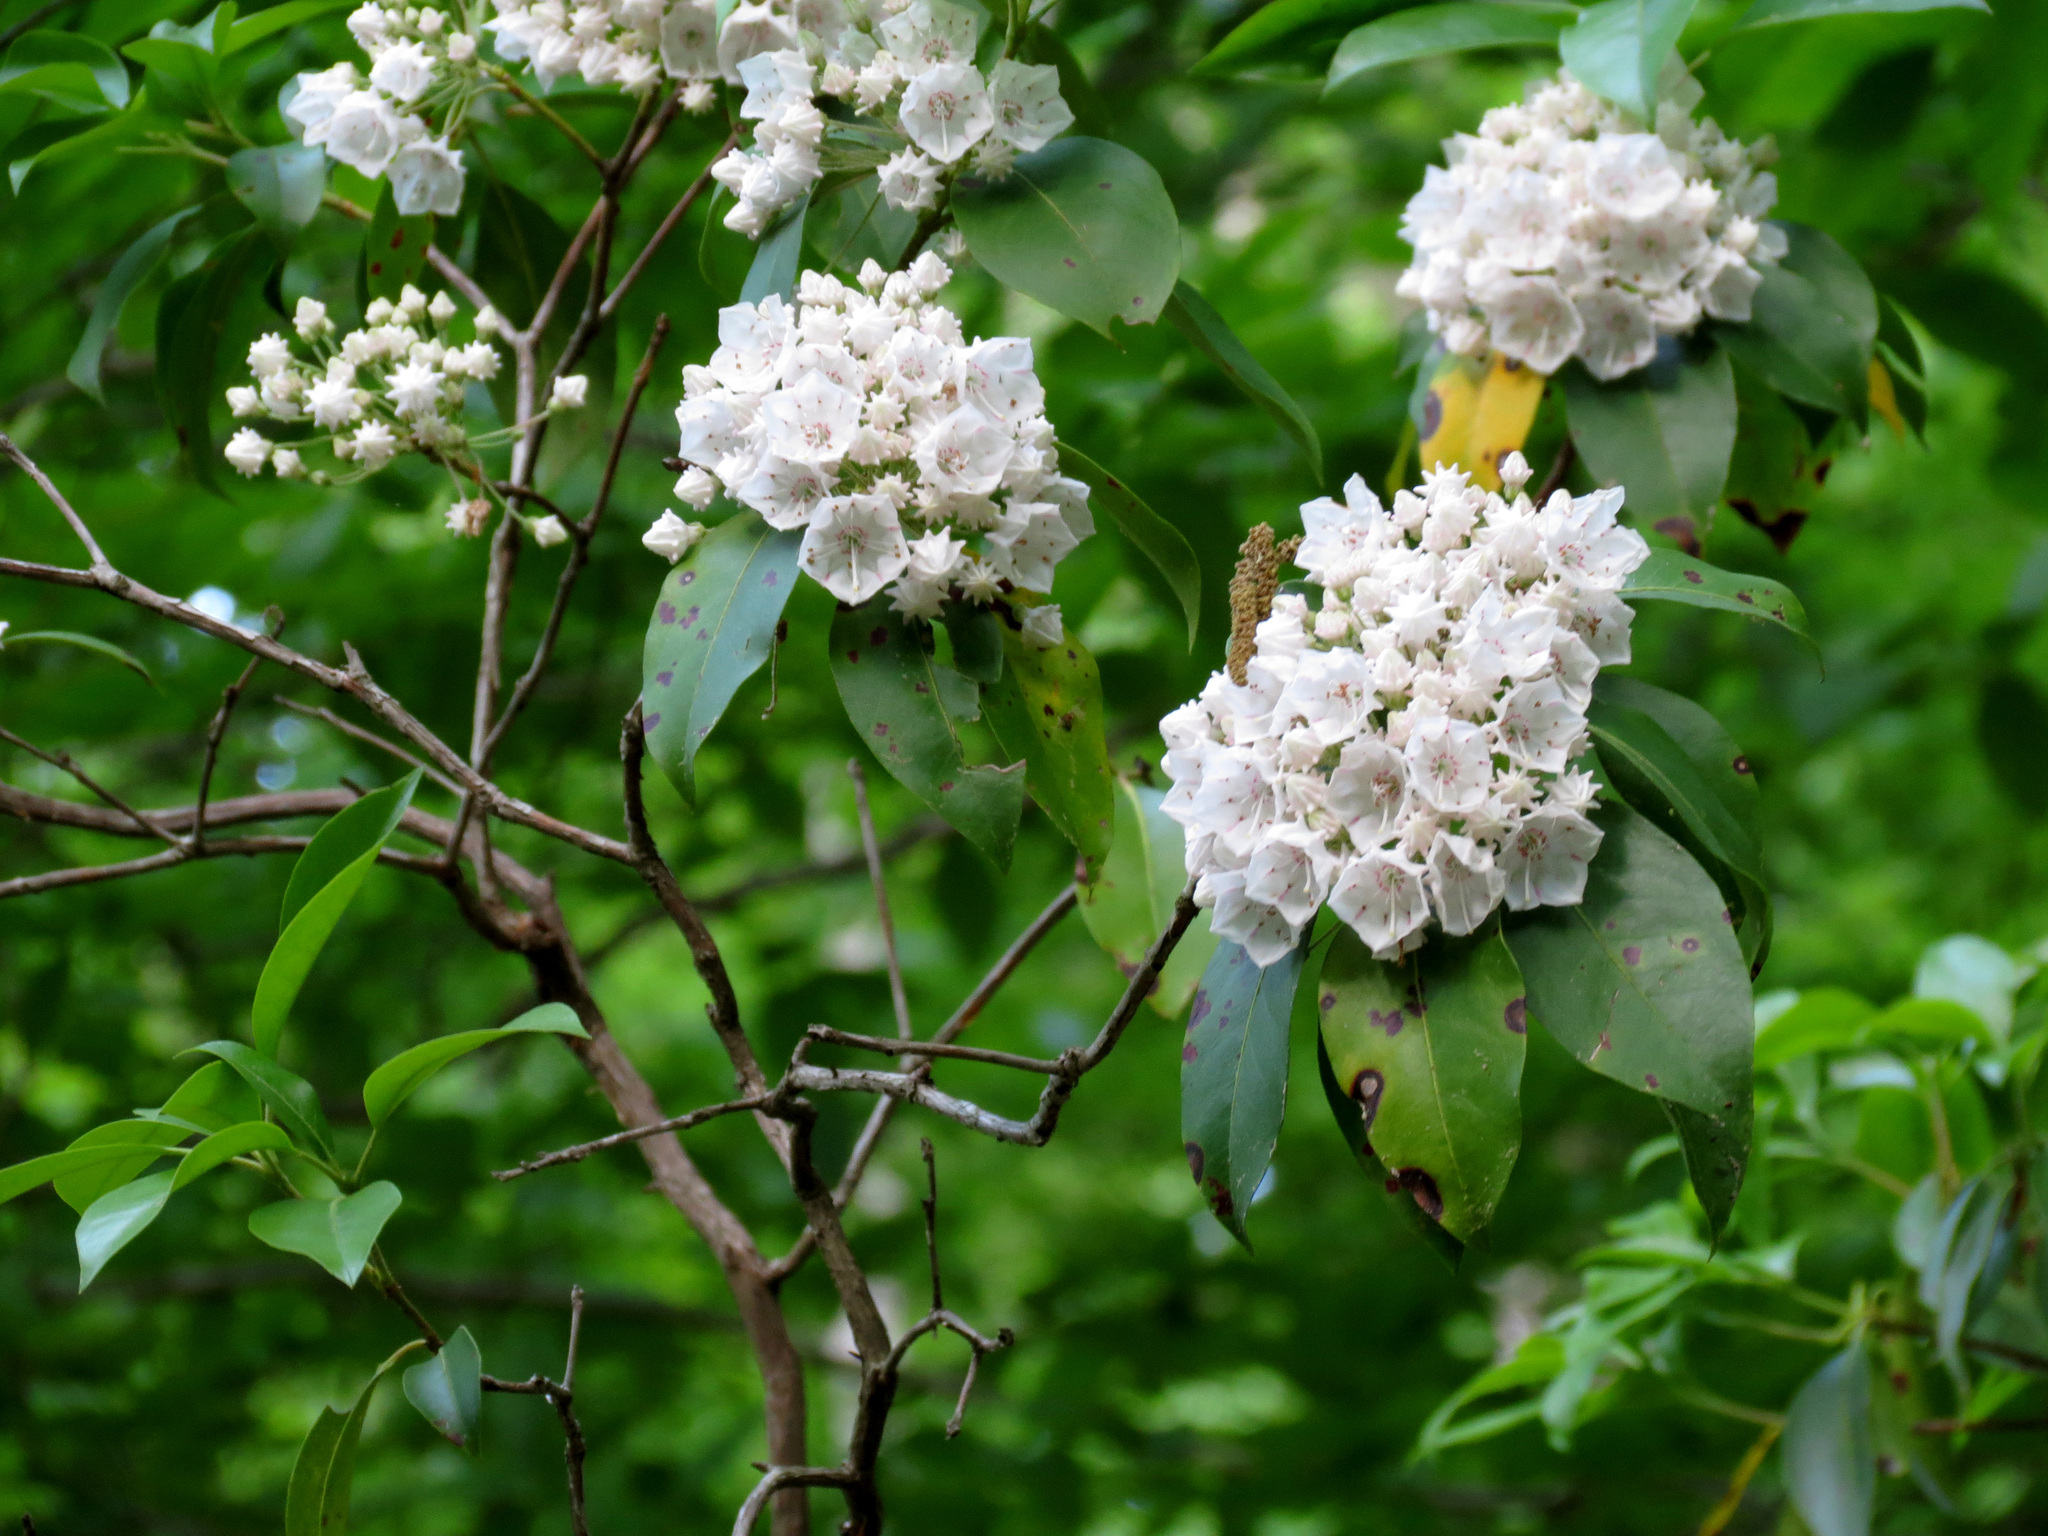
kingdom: Plantae
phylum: Tracheophyta
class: Magnoliopsida
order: Ericales
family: Ericaceae
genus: Kalmia
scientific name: Kalmia latifolia
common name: Mountain-laurel
